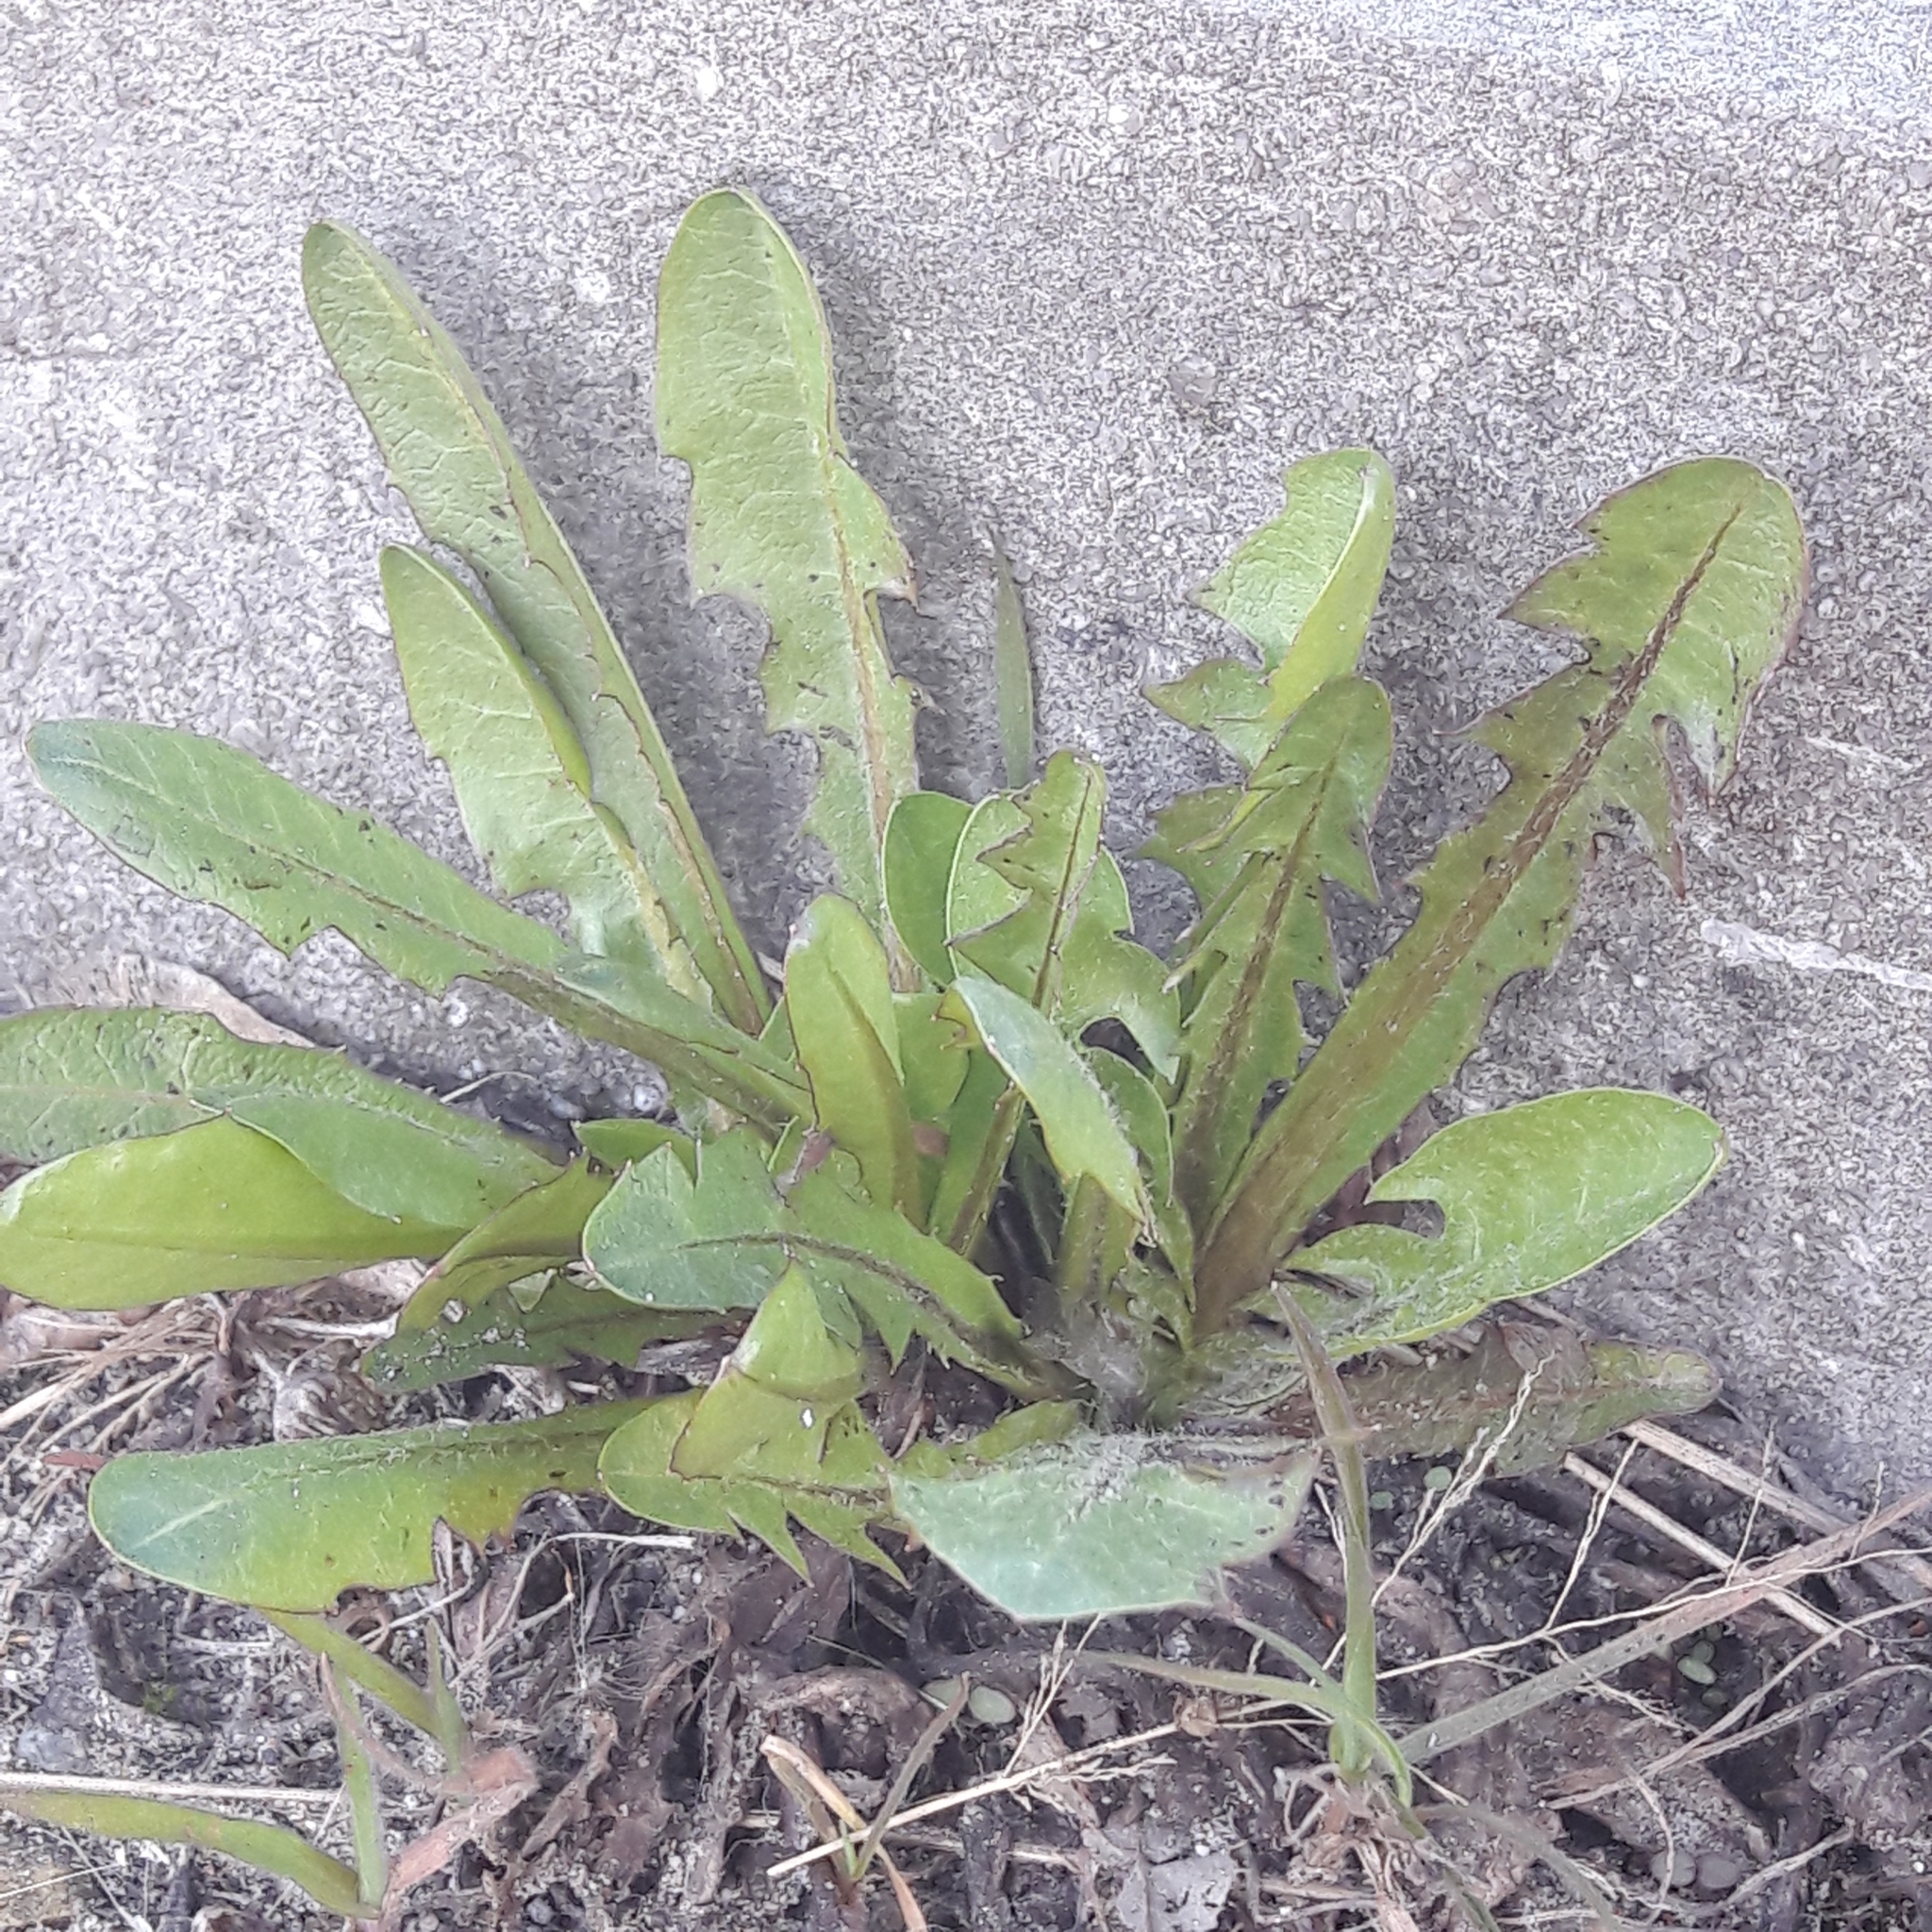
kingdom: Plantae
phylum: Tracheophyta
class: Magnoliopsida
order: Asterales
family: Asteraceae
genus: Taraxacum
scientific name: Taraxacum officinale
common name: Common dandelion
